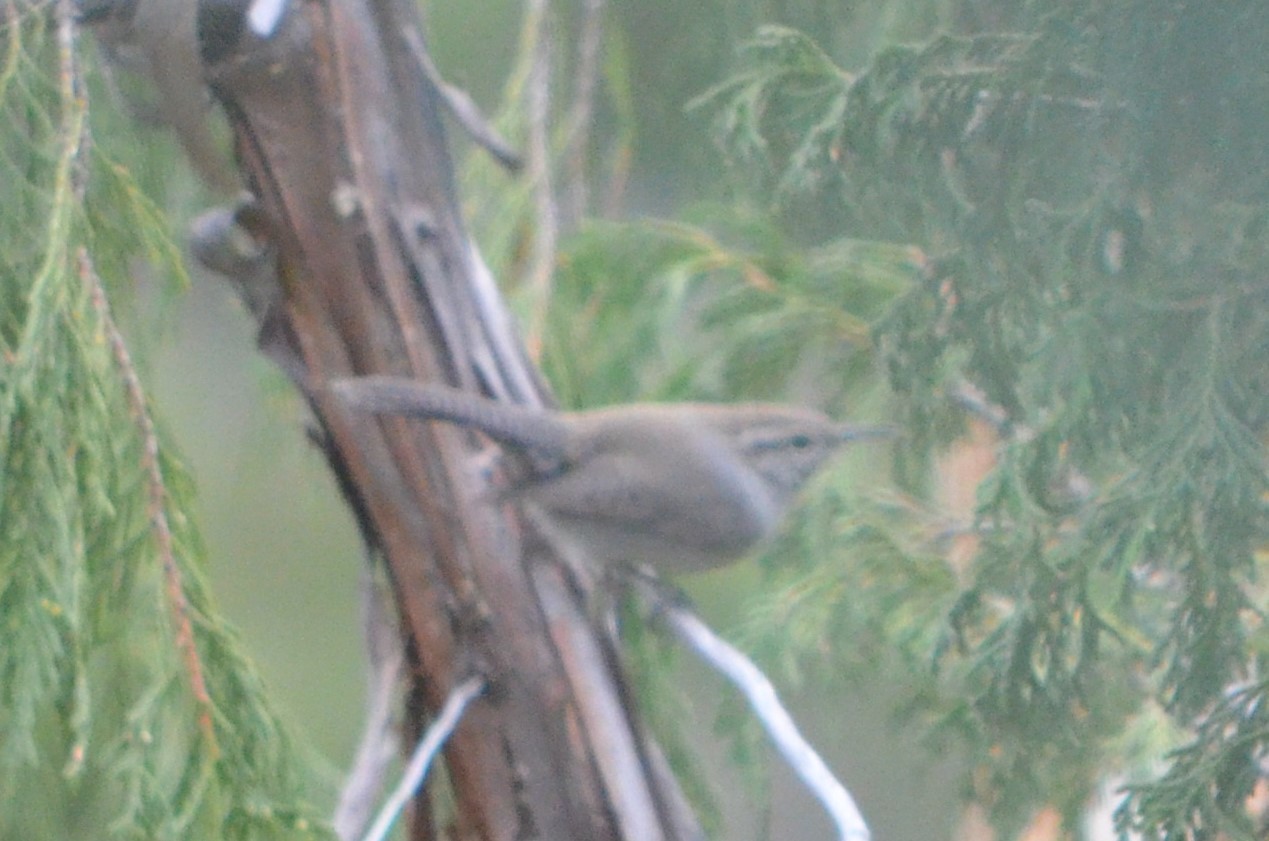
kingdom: Animalia
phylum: Chordata
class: Aves
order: Passeriformes
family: Troglodytidae
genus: Thryomanes
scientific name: Thryomanes bewickii
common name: Bewick's wren
